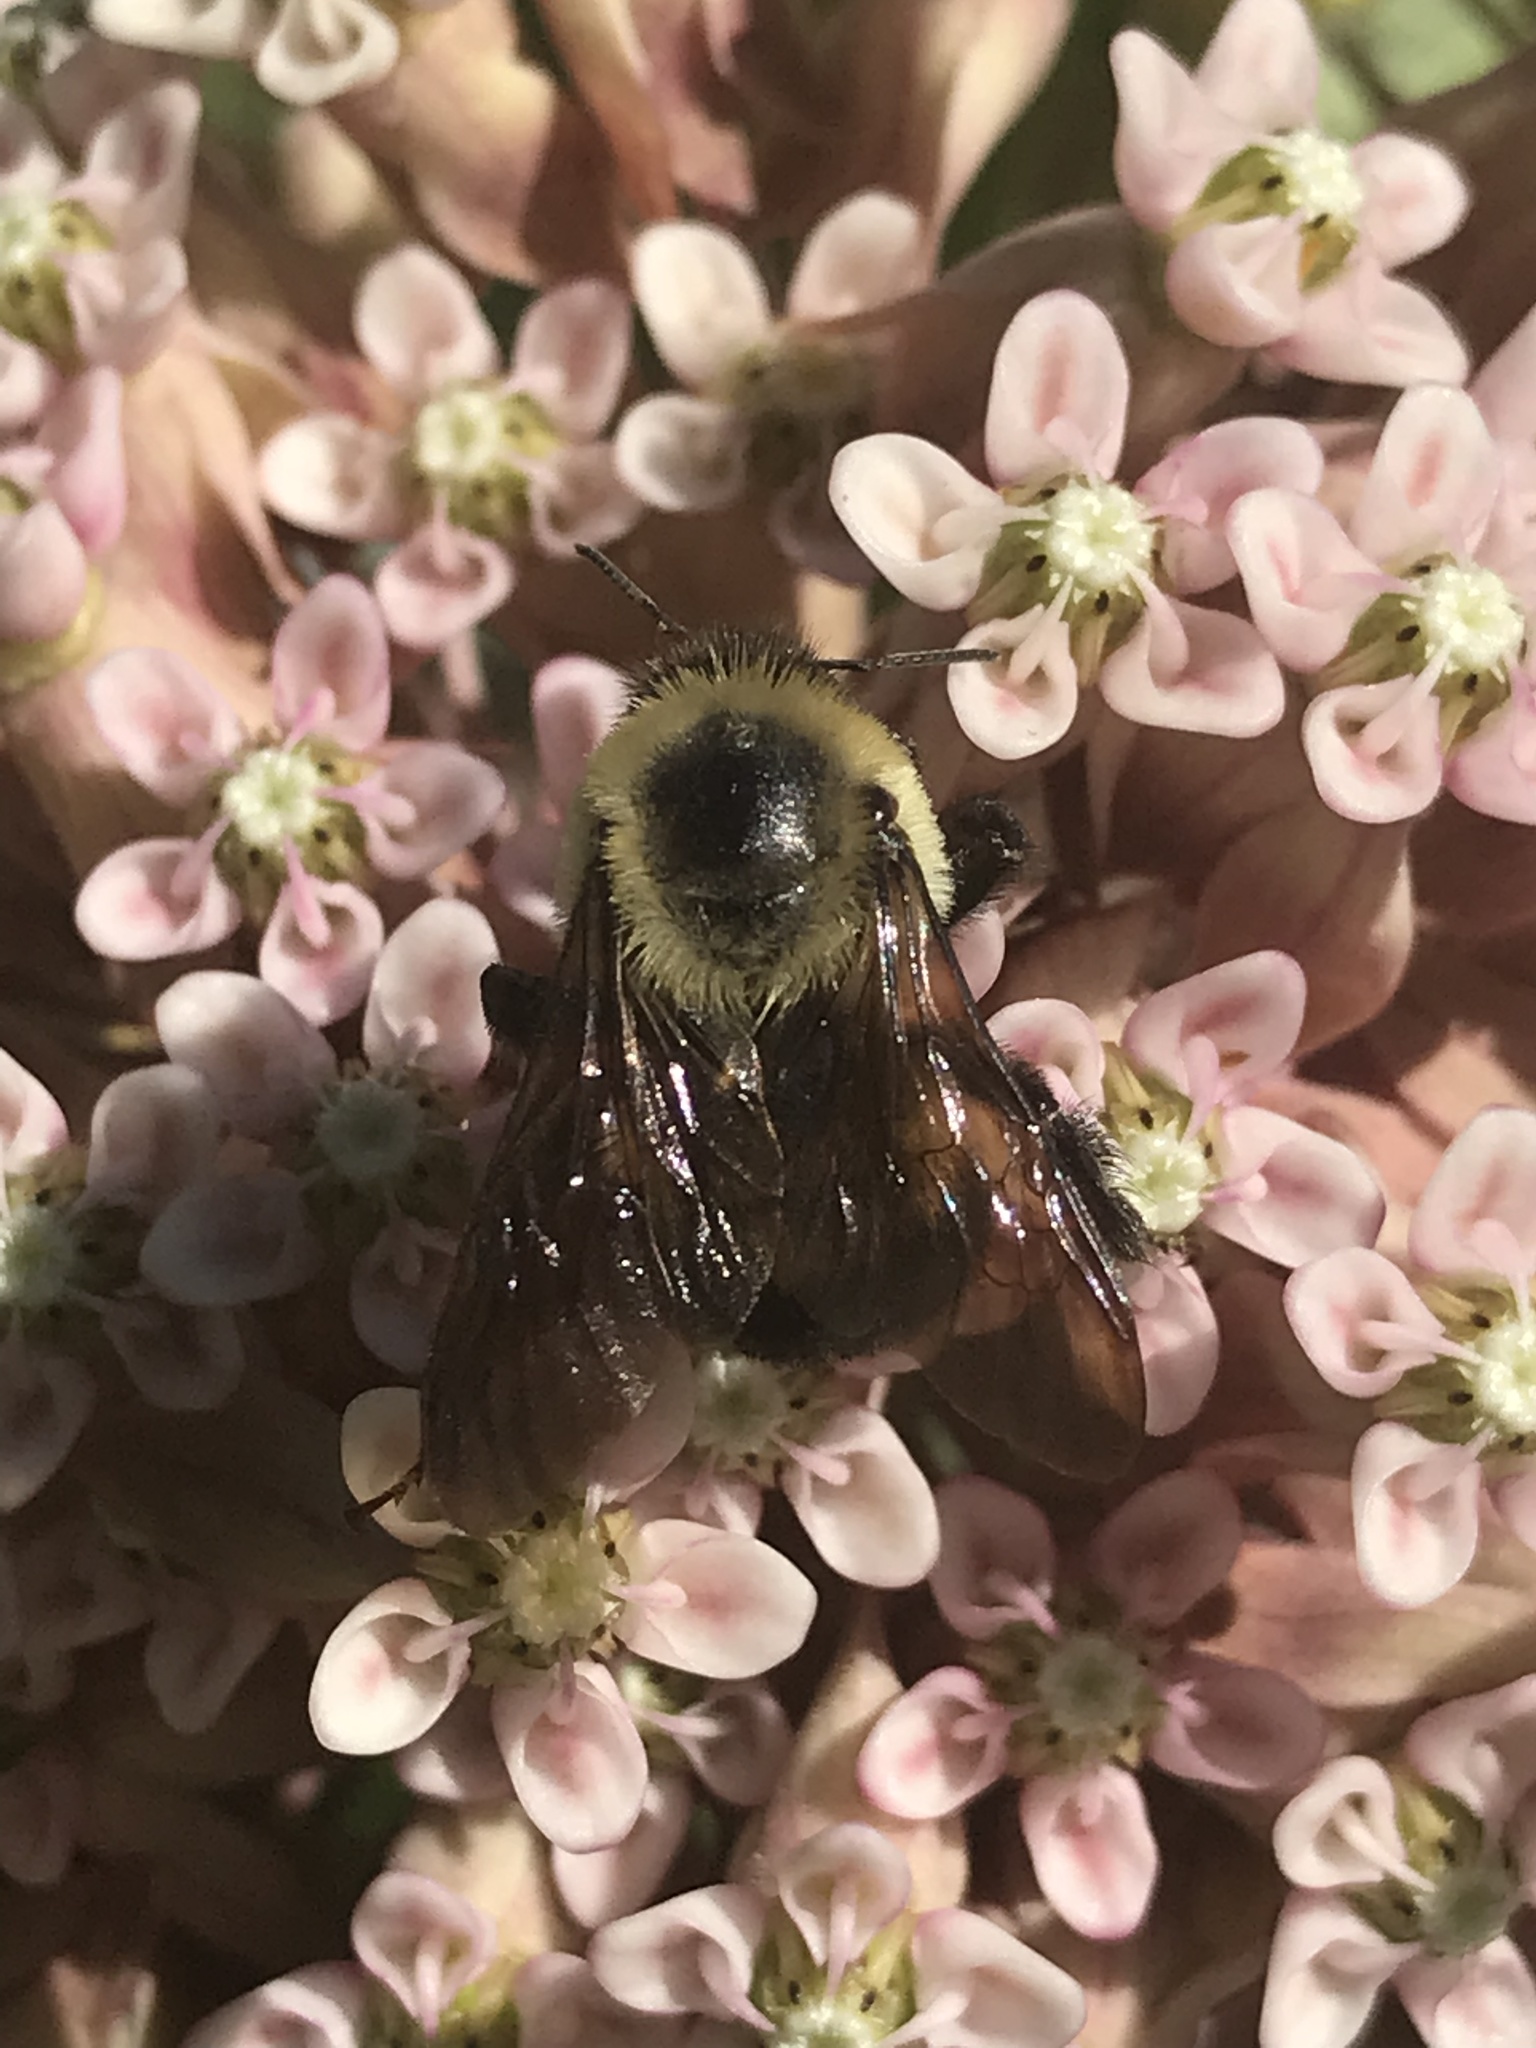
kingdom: Animalia
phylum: Arthropoda
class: Insecta
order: Hymenoptera
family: Apidae
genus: Bombus
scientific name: Bombus griseocollis
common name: Brown-belted bumble bee
